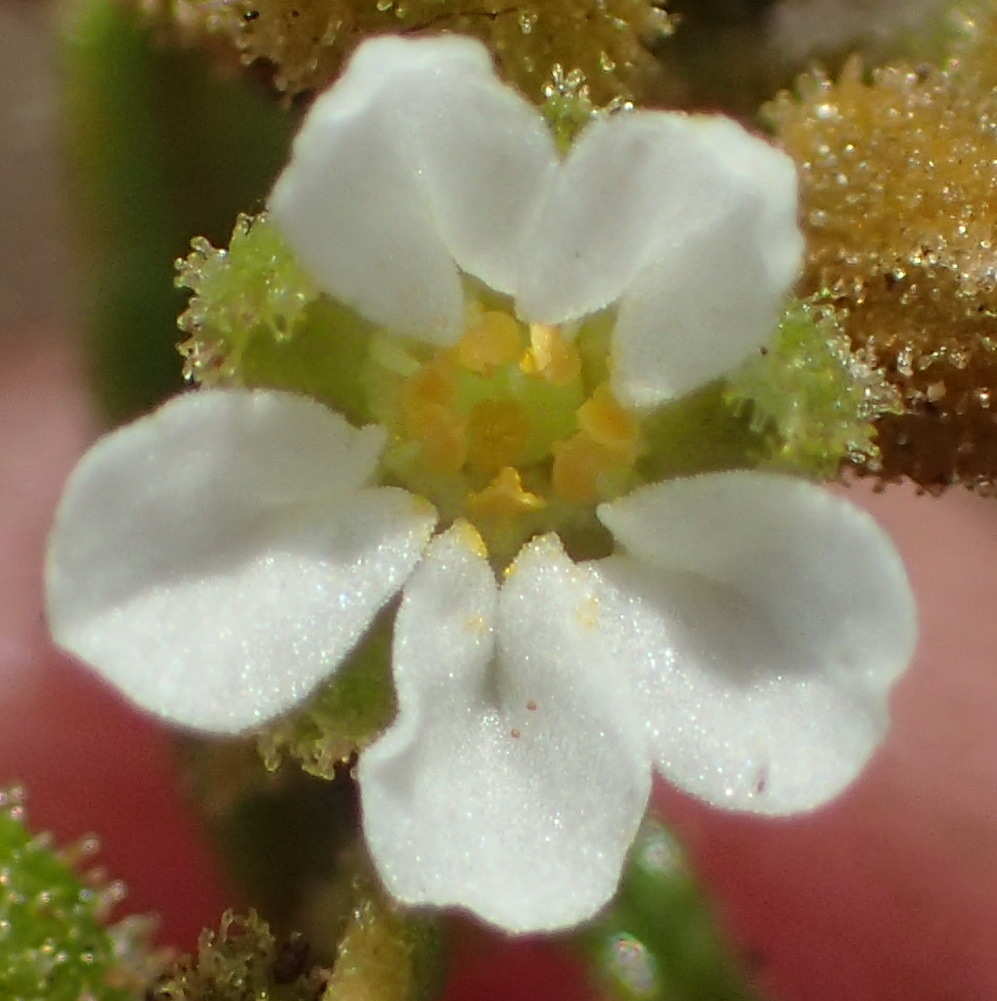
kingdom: Plantae
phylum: Tracheophyta
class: Magnoliopsida
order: Caryophyllales
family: Limeaceae
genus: Limeum
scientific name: Limeum viscosum
